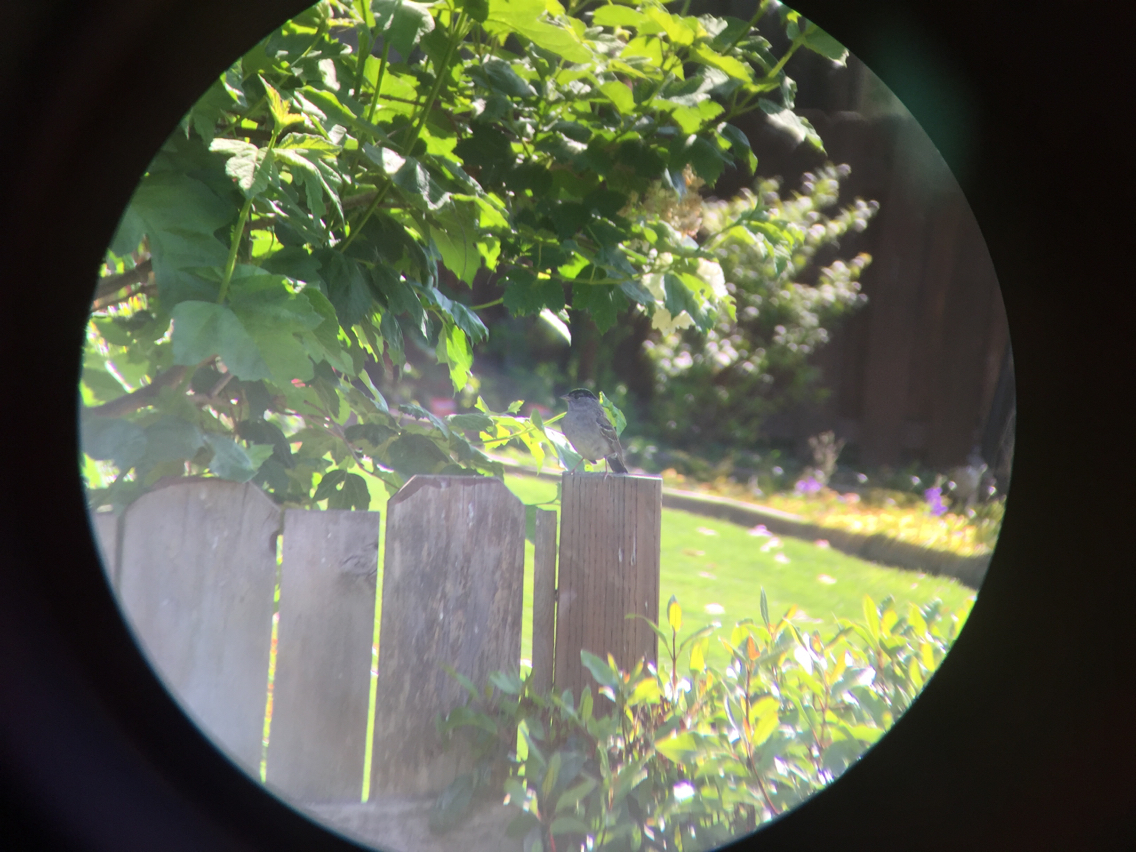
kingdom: Animalia
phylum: Chordata
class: Aves
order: Passeriformes
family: Passerellidae
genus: Zonotrichia
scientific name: Zonotrichia atricapilla
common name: Golden-crowned sparrow
